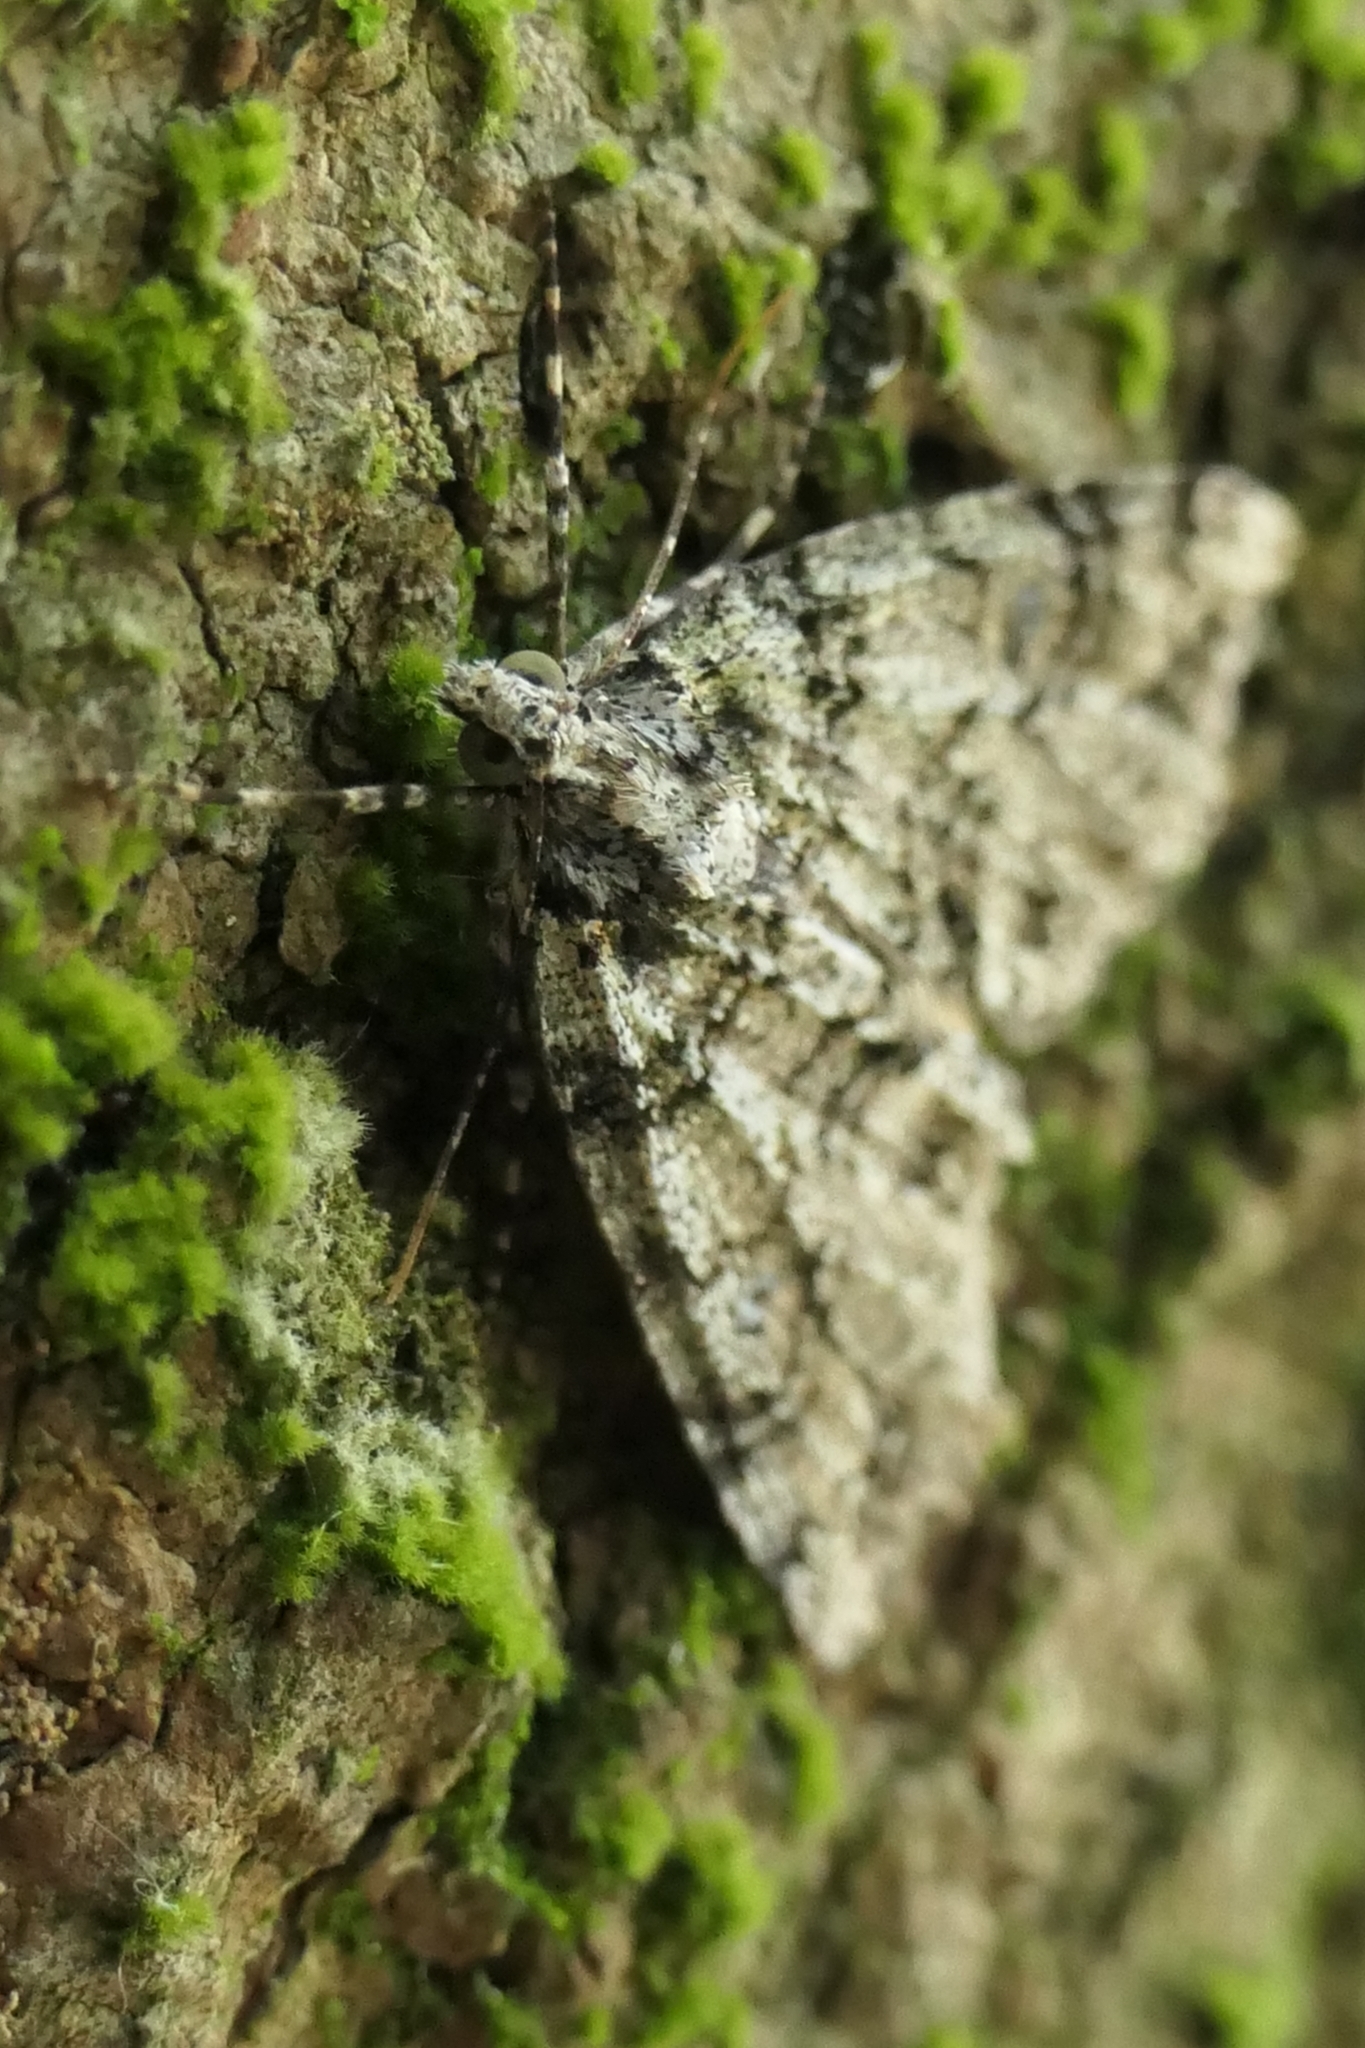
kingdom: Animalia
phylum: Arthropoda
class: Insecta
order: Lepidoptera
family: Geometridae
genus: Pseudocoremia
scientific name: Pseudocoremia suavis
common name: Common forest looper
